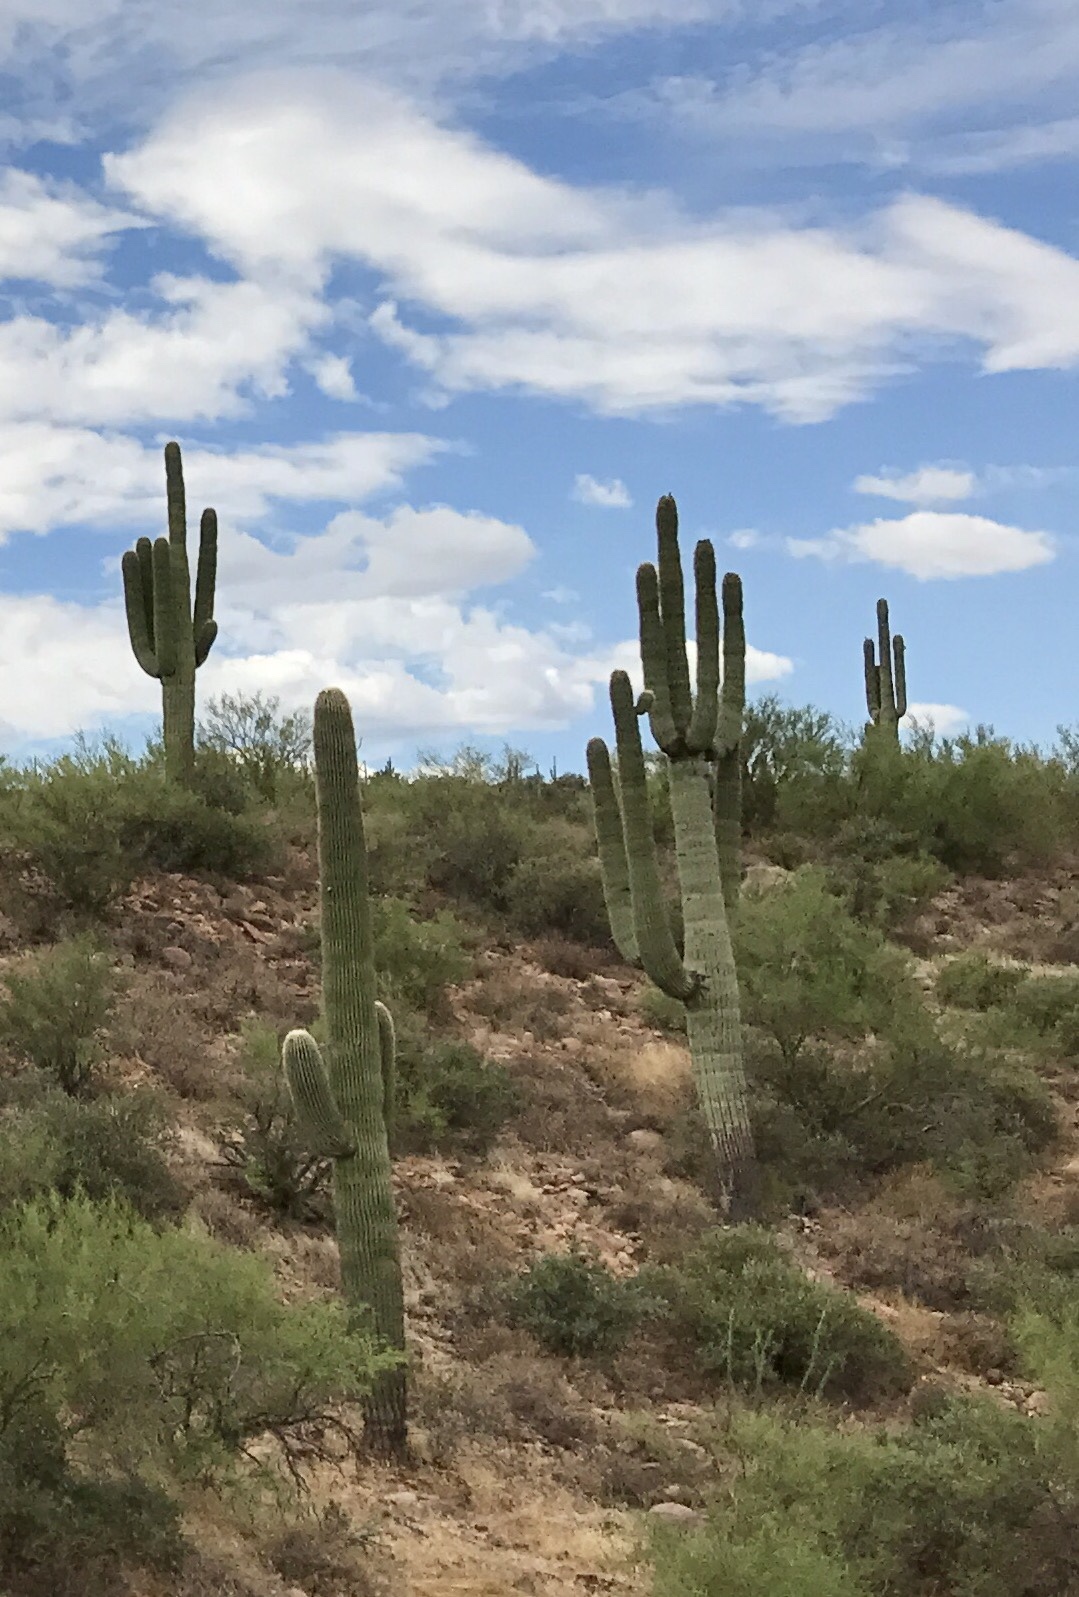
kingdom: Plantae
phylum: Tracheophyta
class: Magnoliopsida
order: Caryophyllales
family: Cactaceae
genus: Carnegiea
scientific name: Carnegiea gigantea
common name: Saguaro
